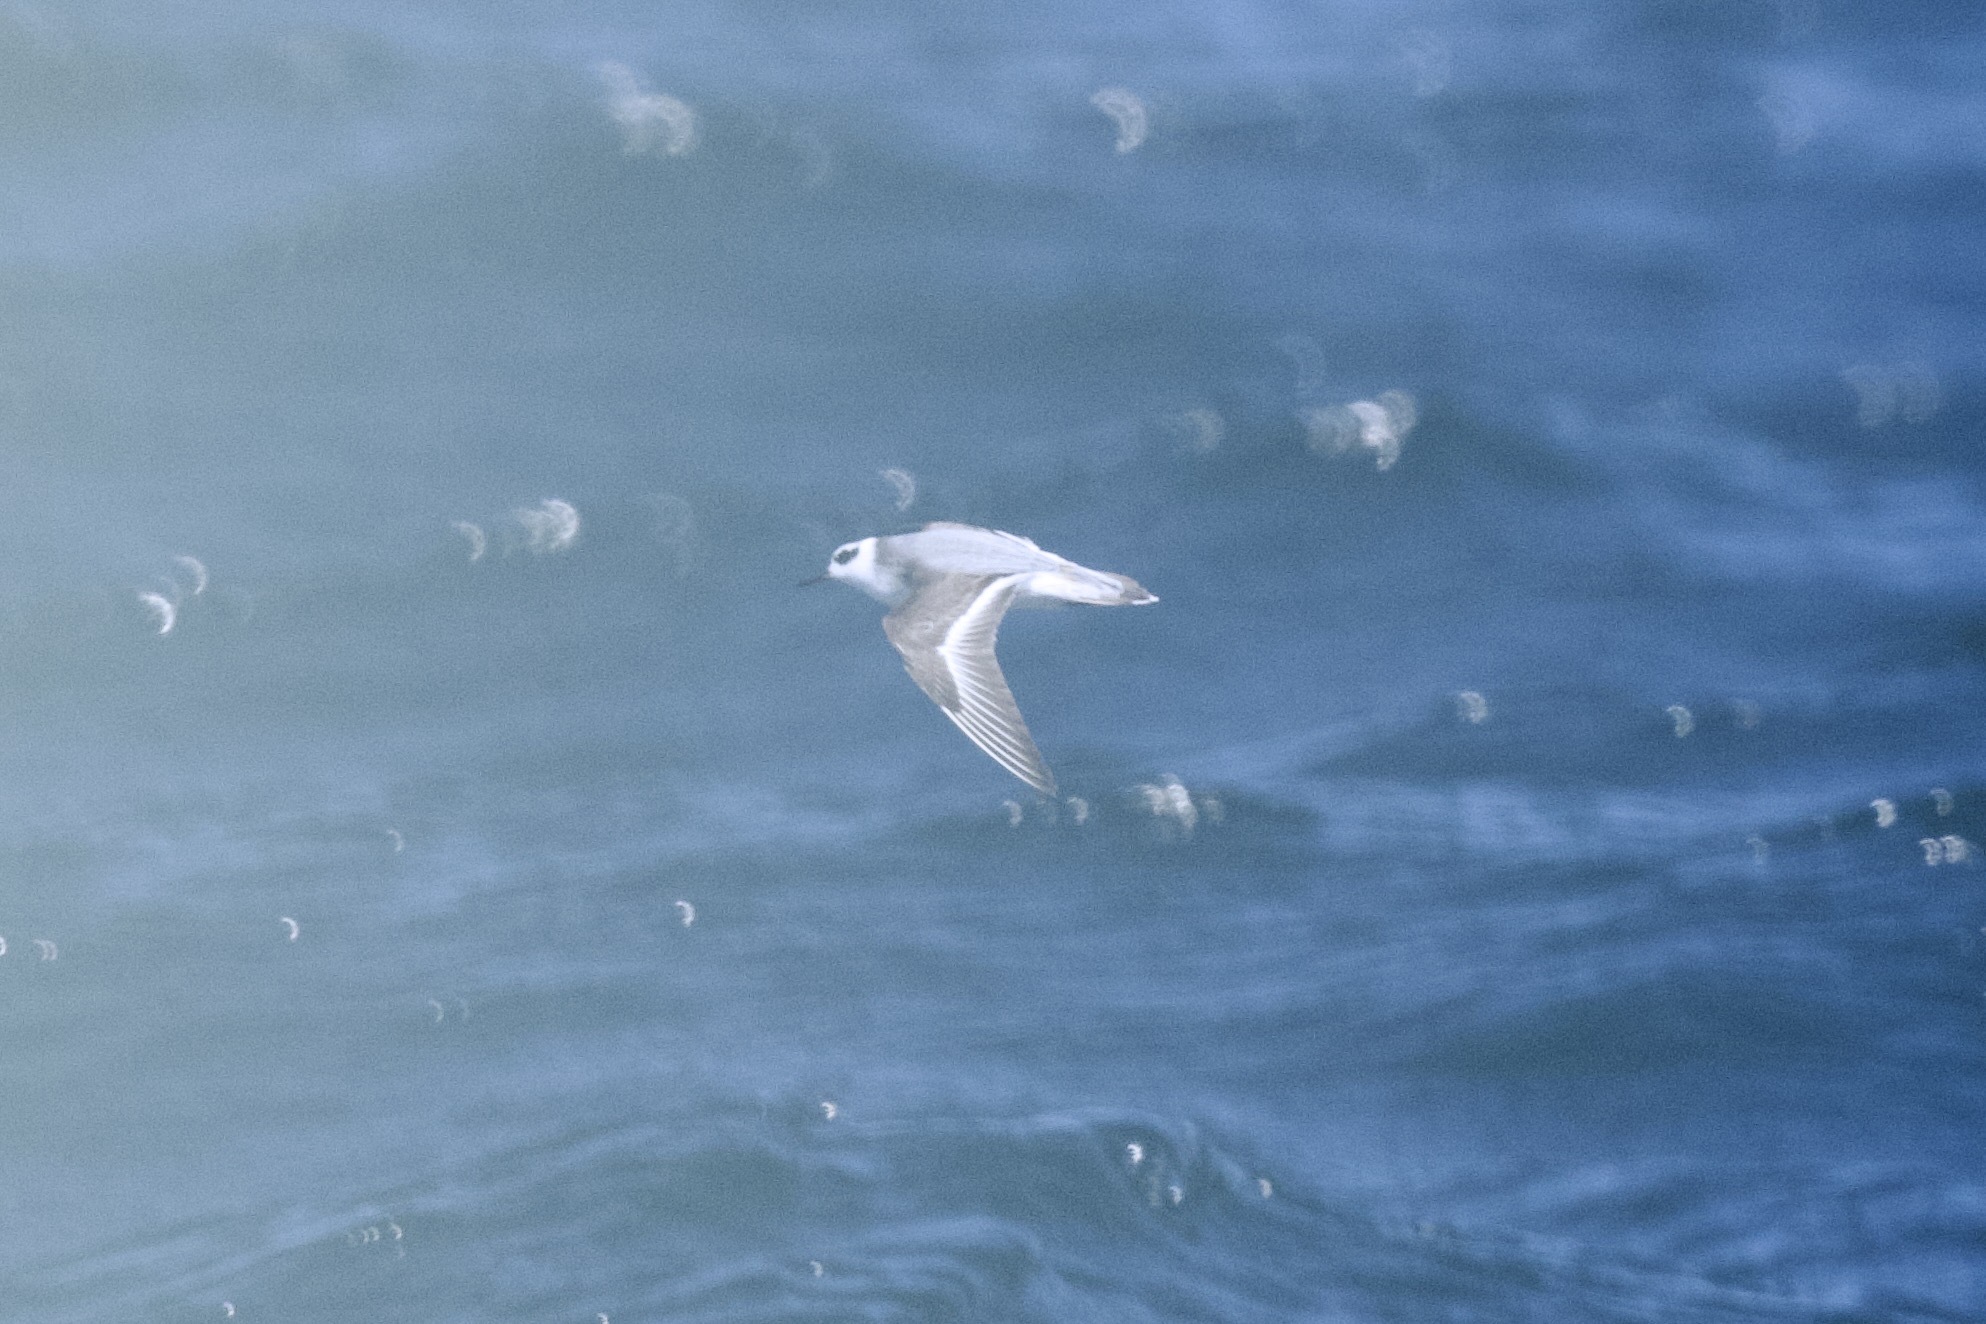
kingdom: Animalia
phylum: Chordata
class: Aves
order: Charadriiformes
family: Scolopacidae
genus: Phalaropus
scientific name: Phalaropus fulicarius
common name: Red phalarope
